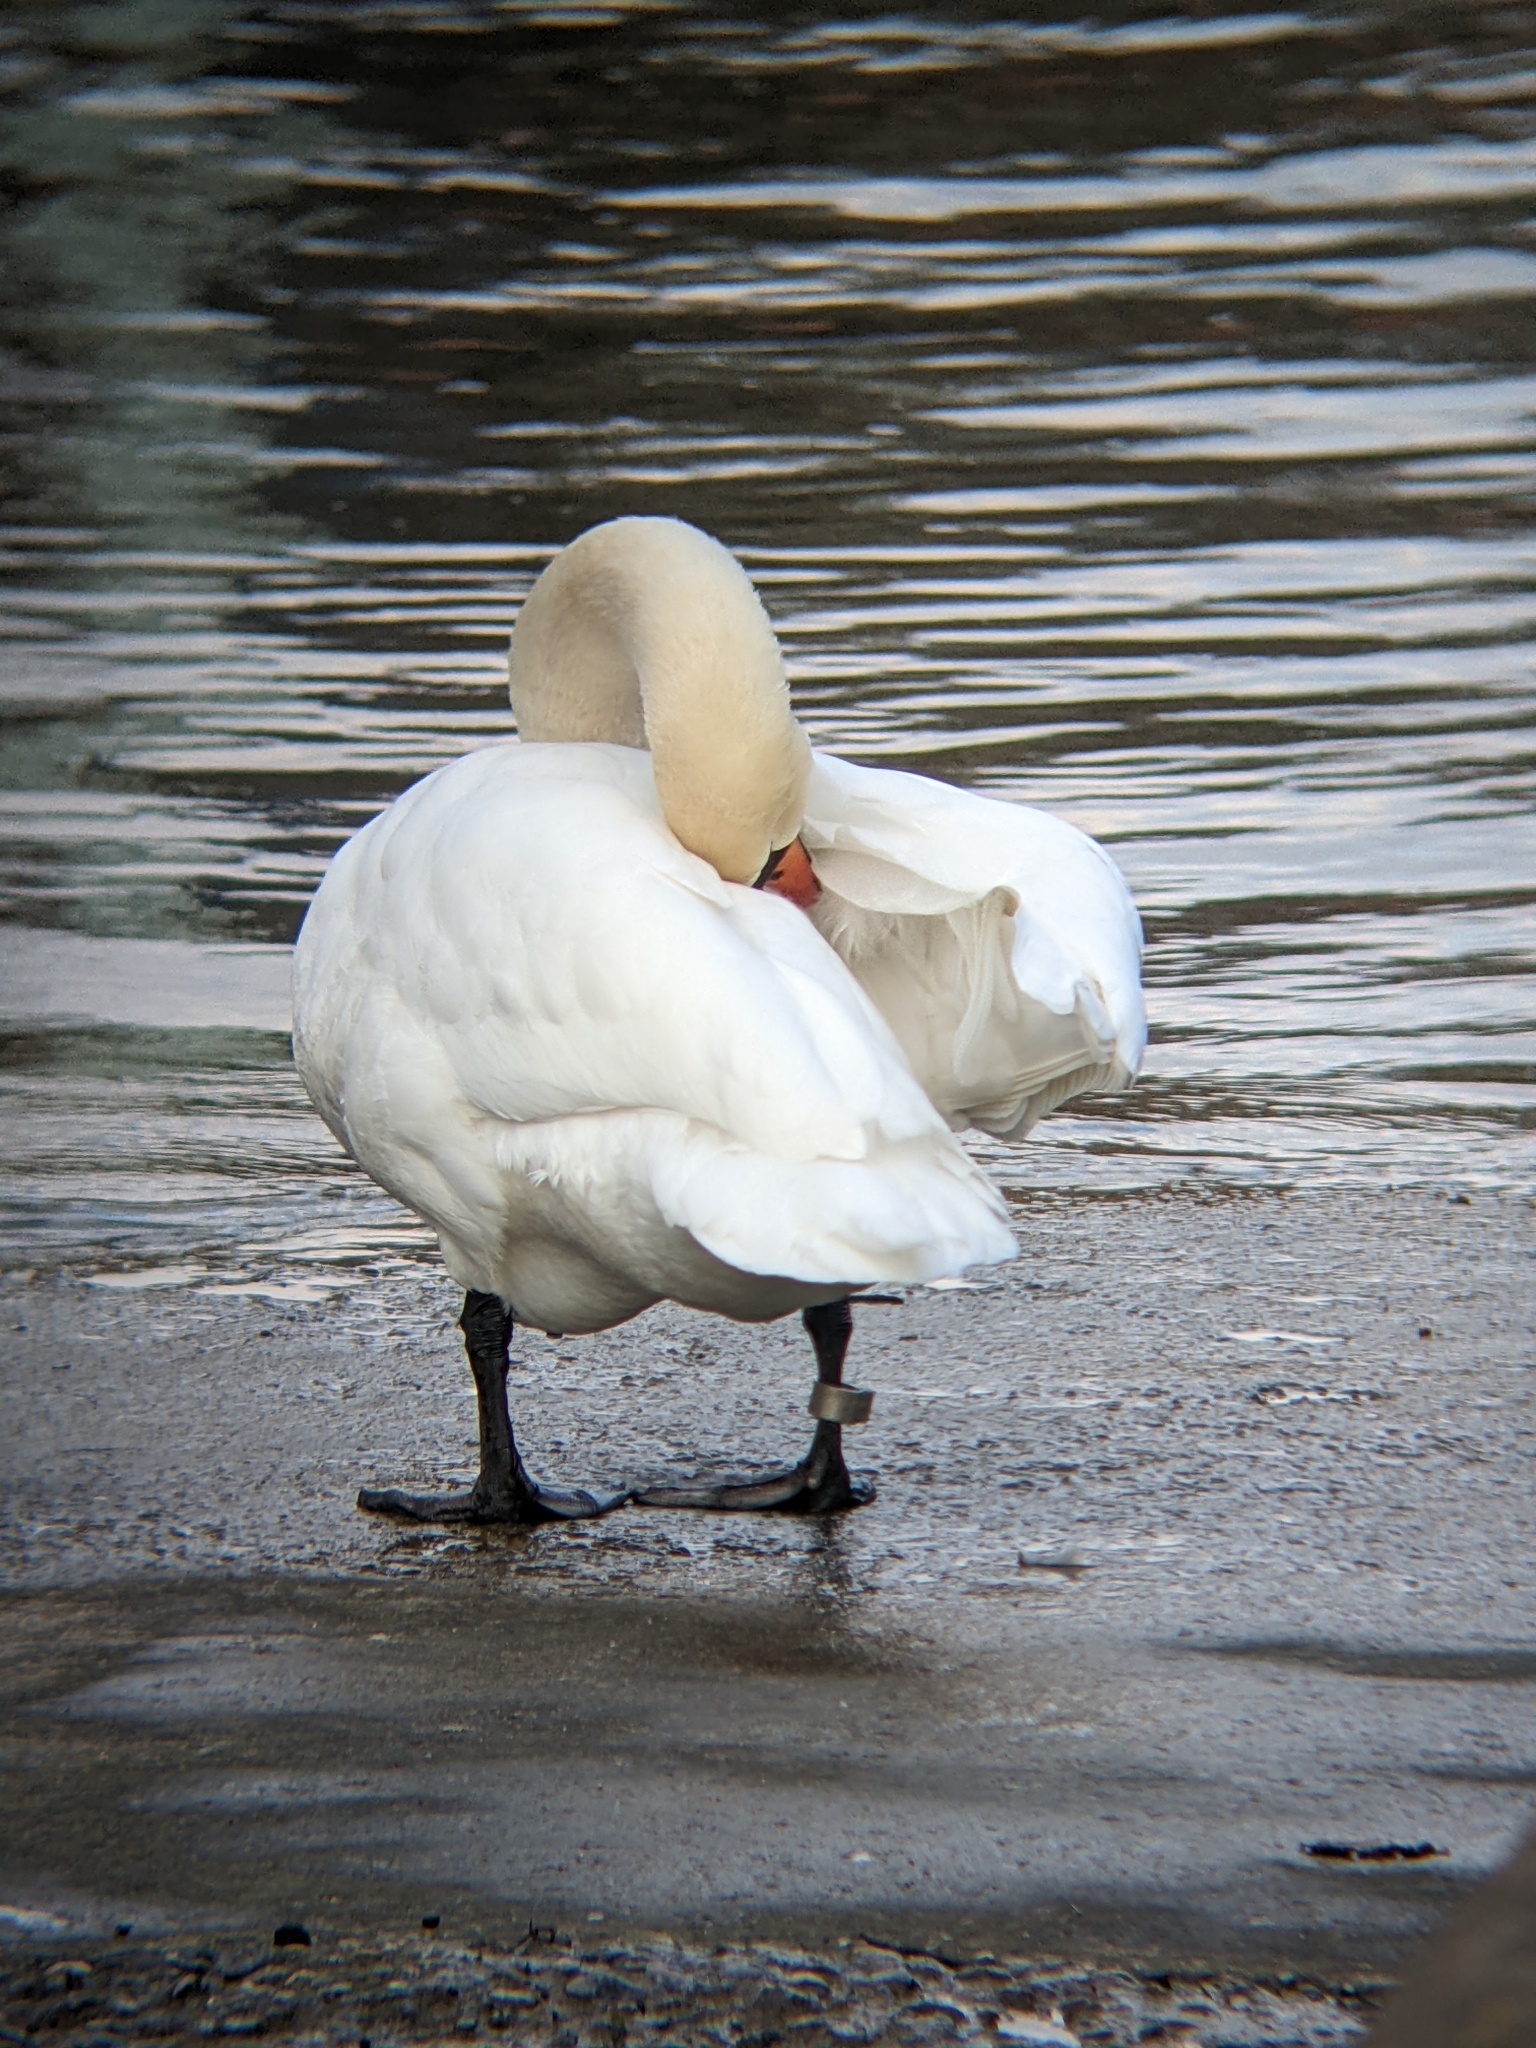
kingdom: Animalia
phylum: Chordata
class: Aves
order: Anseriformes
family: Anatidae
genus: Cygnus
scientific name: Cygnus olor
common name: Mute swan
